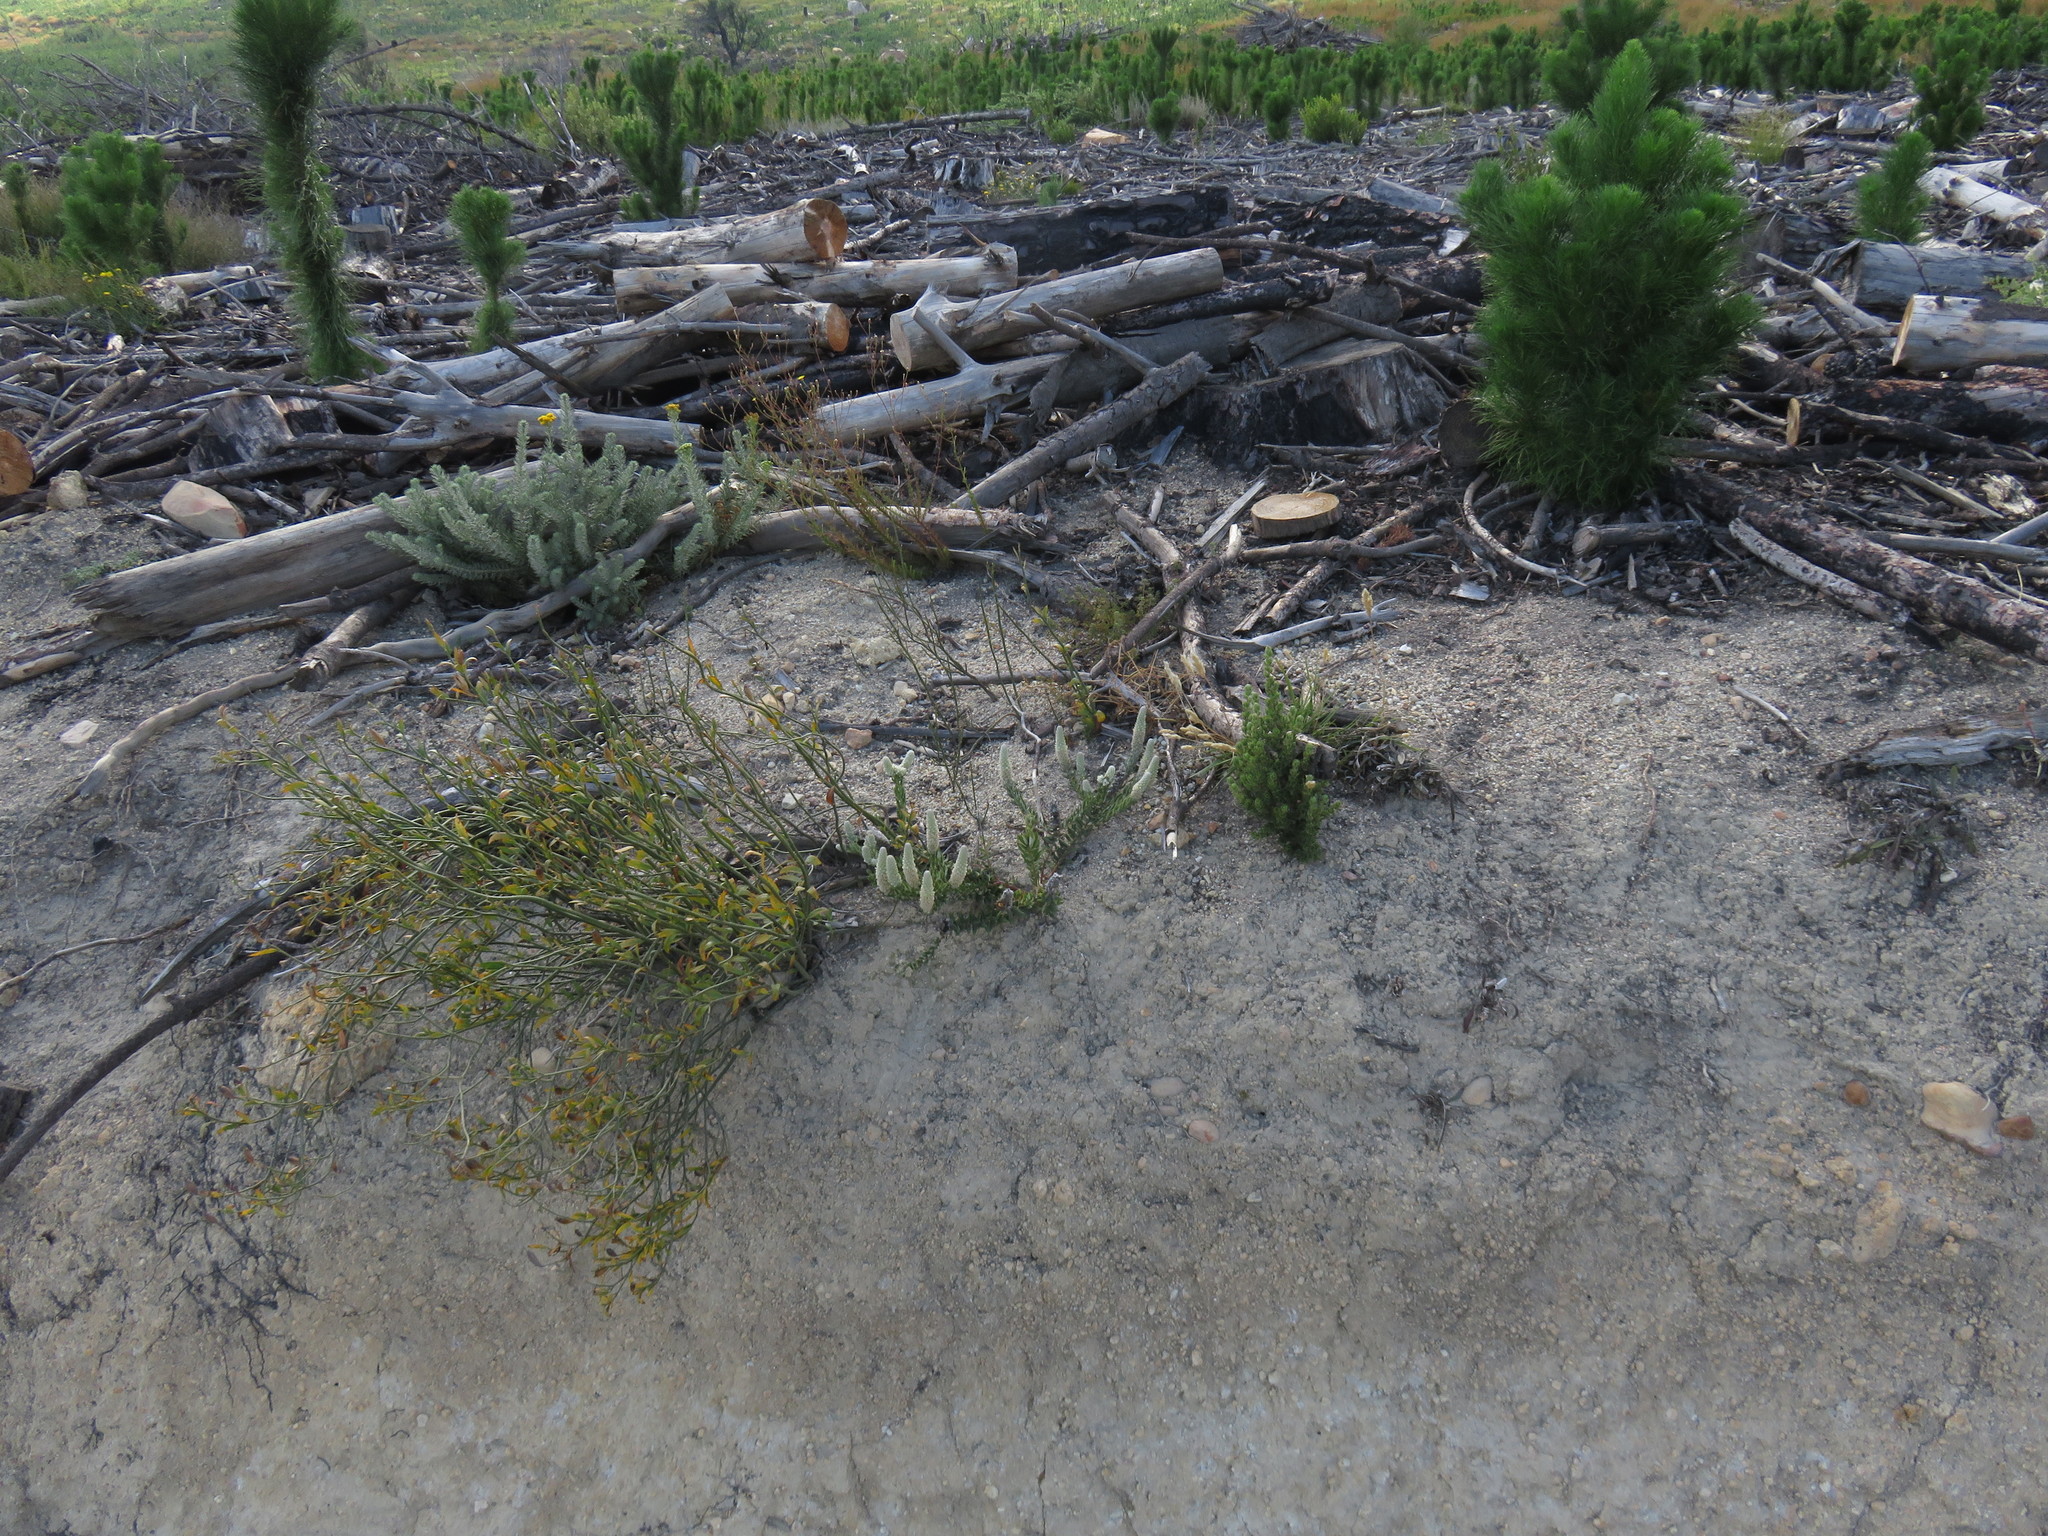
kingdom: Plantae
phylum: Tracheophyta
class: Magnoliopsida
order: Rosales
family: Rhamnaceae
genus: Phylica
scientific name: Phylica spicata
